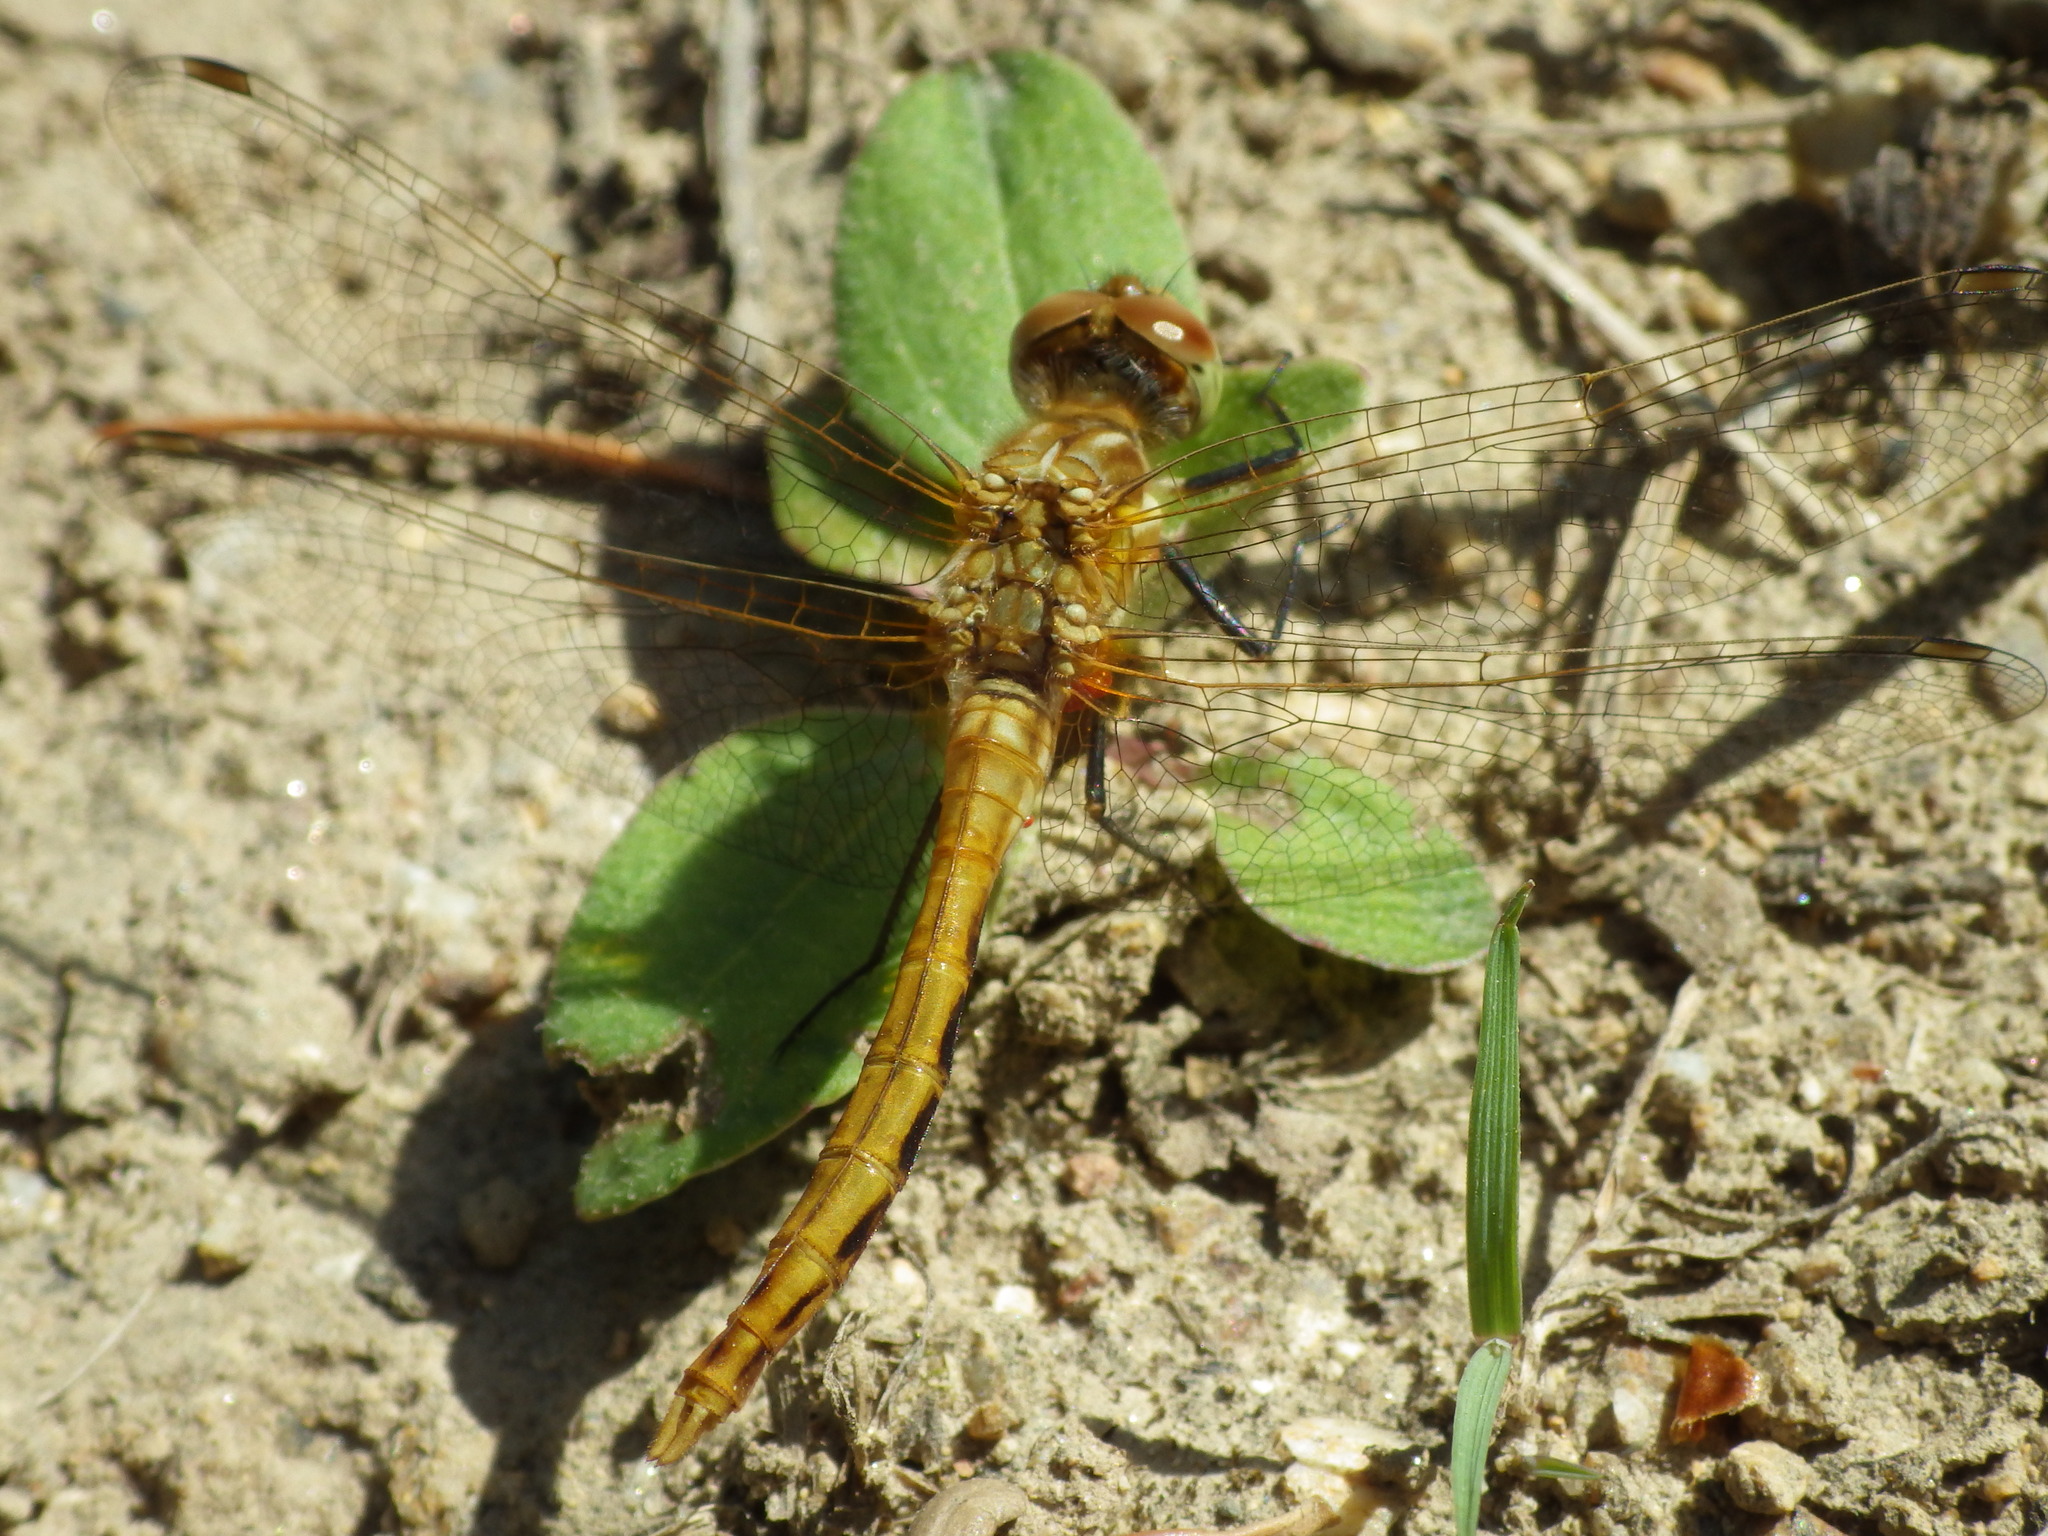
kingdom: Animalia
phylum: Arthropoda
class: Insecta
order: Odonata
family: Libellulidae
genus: Sympetrum
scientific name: Sympetrum pallipes
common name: Striped meadowhawk
